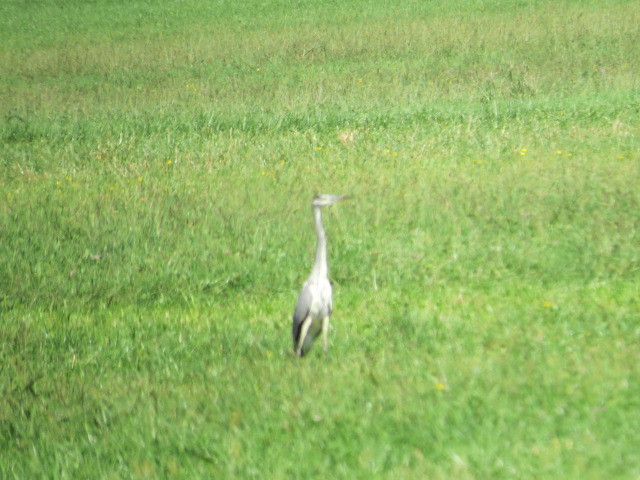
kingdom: Animalia
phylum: Chordata
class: Aves
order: Pelecaniformes
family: Ardeidae
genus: Ardea
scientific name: Ardea cinerea
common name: Grey heron
